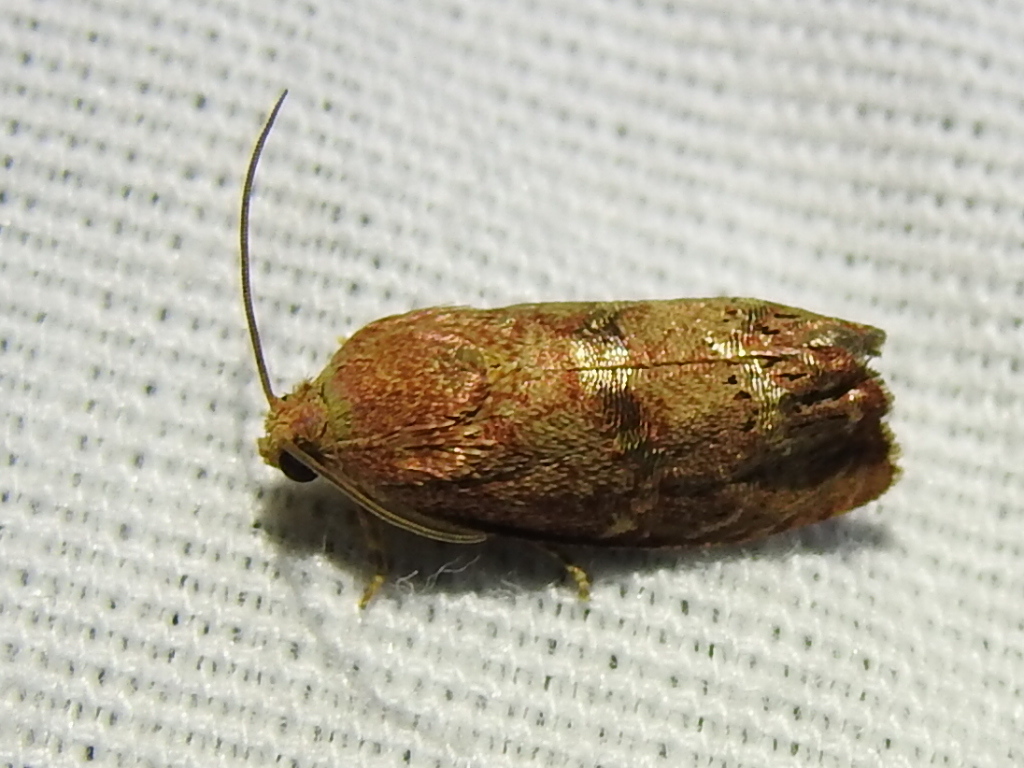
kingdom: Animalia
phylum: Arthropoda
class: Insecta
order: Lepidoptera
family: Tortricidae
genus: Cydia
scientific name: Cydia latiferreana
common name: Filbertworm moth
